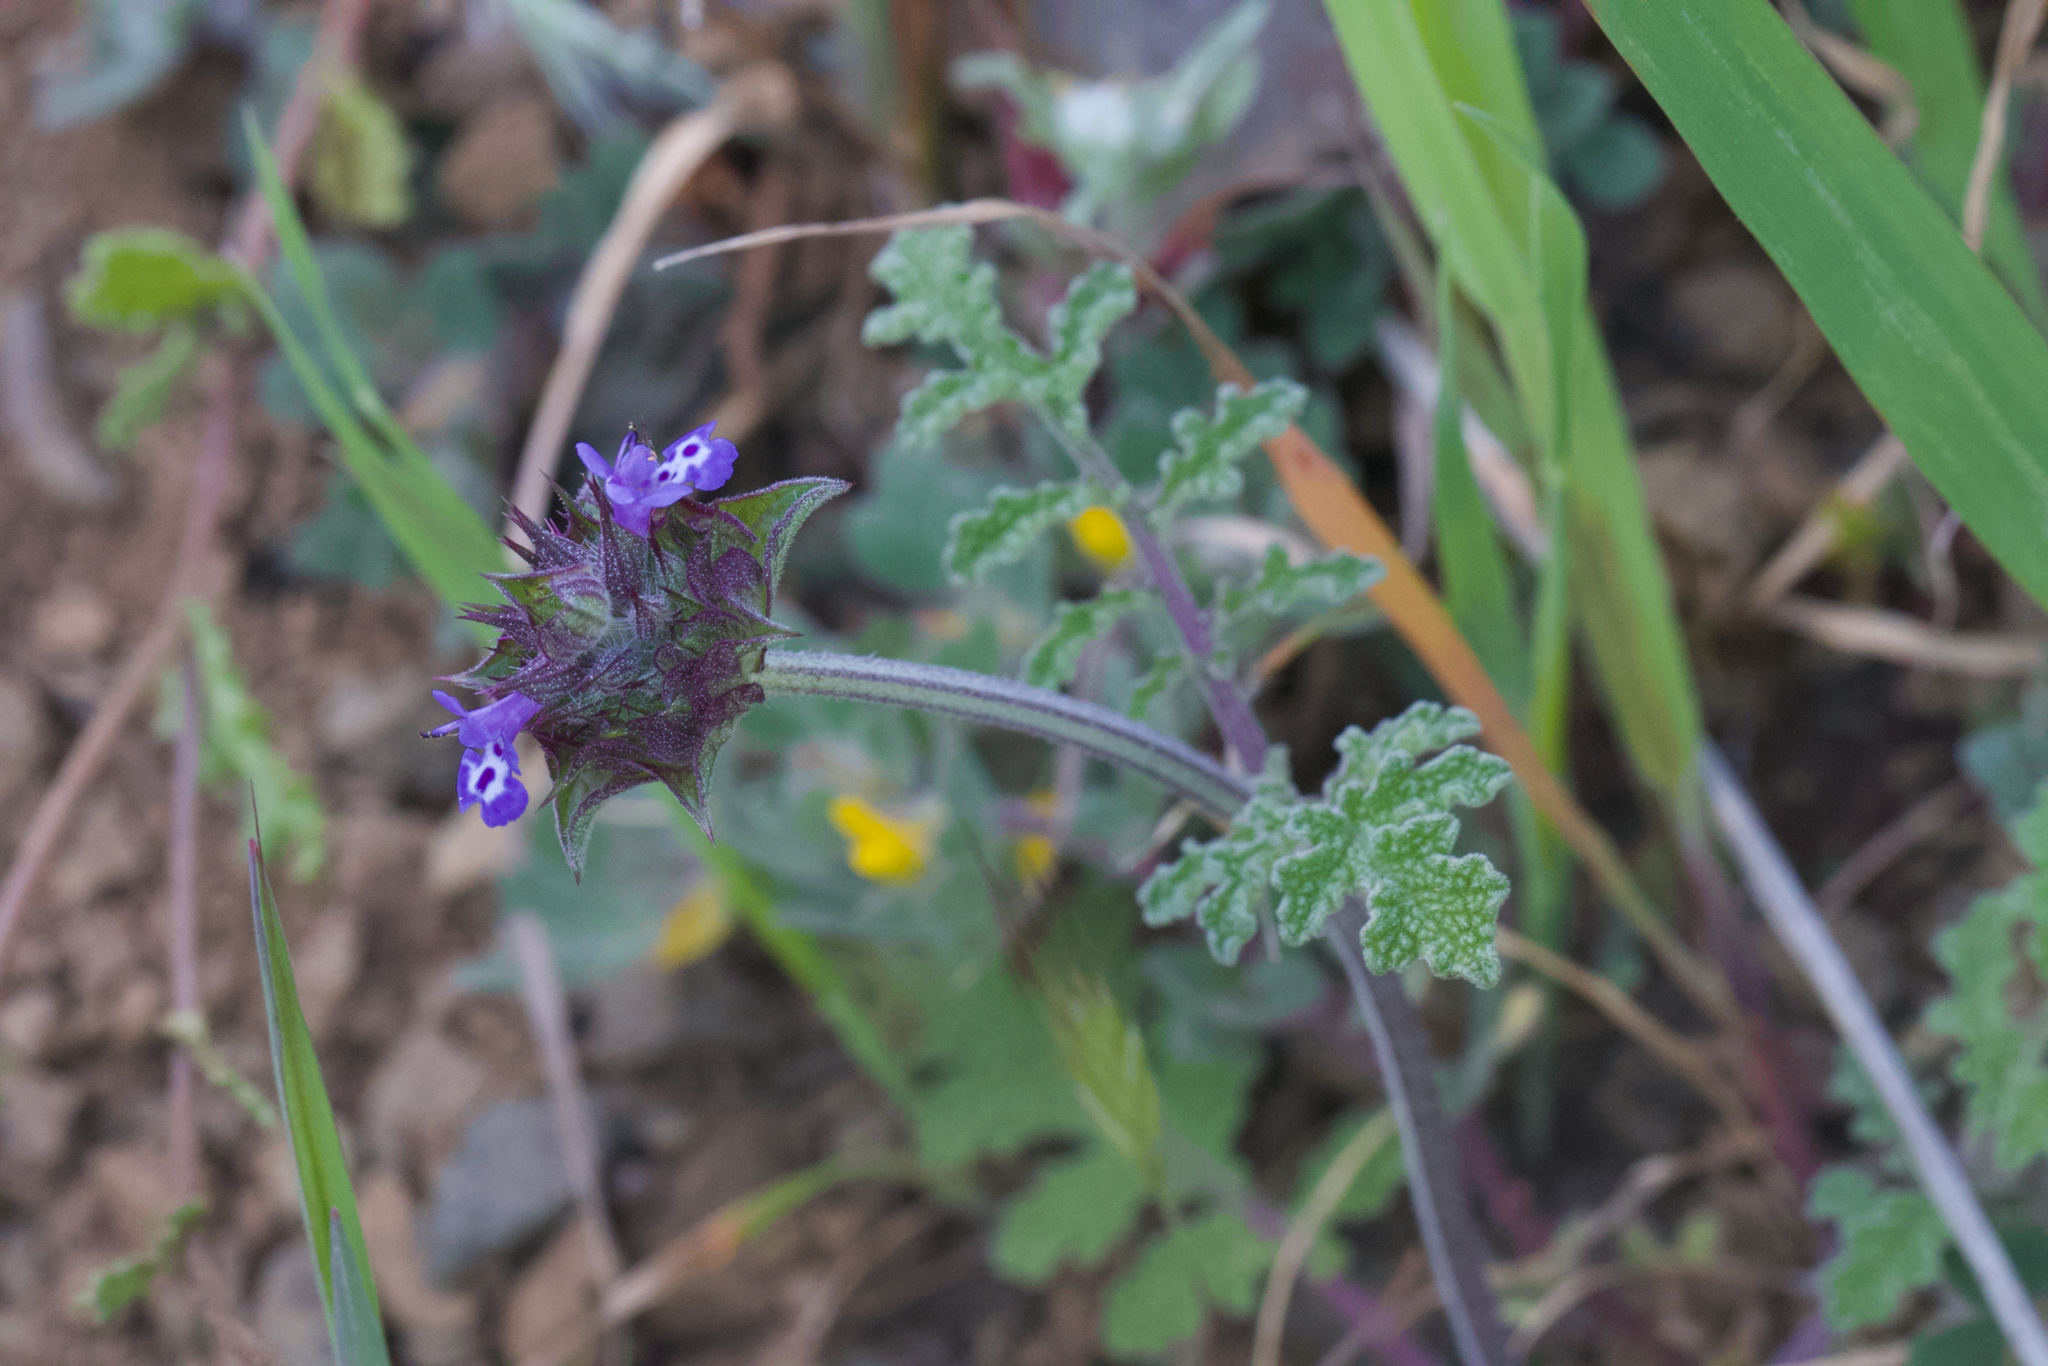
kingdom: Plantae
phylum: Tracheophyta
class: Magnoliopsida
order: Lamiales
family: Lamiaceae
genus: Salvia
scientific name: Salvia columbariae
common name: Chia
